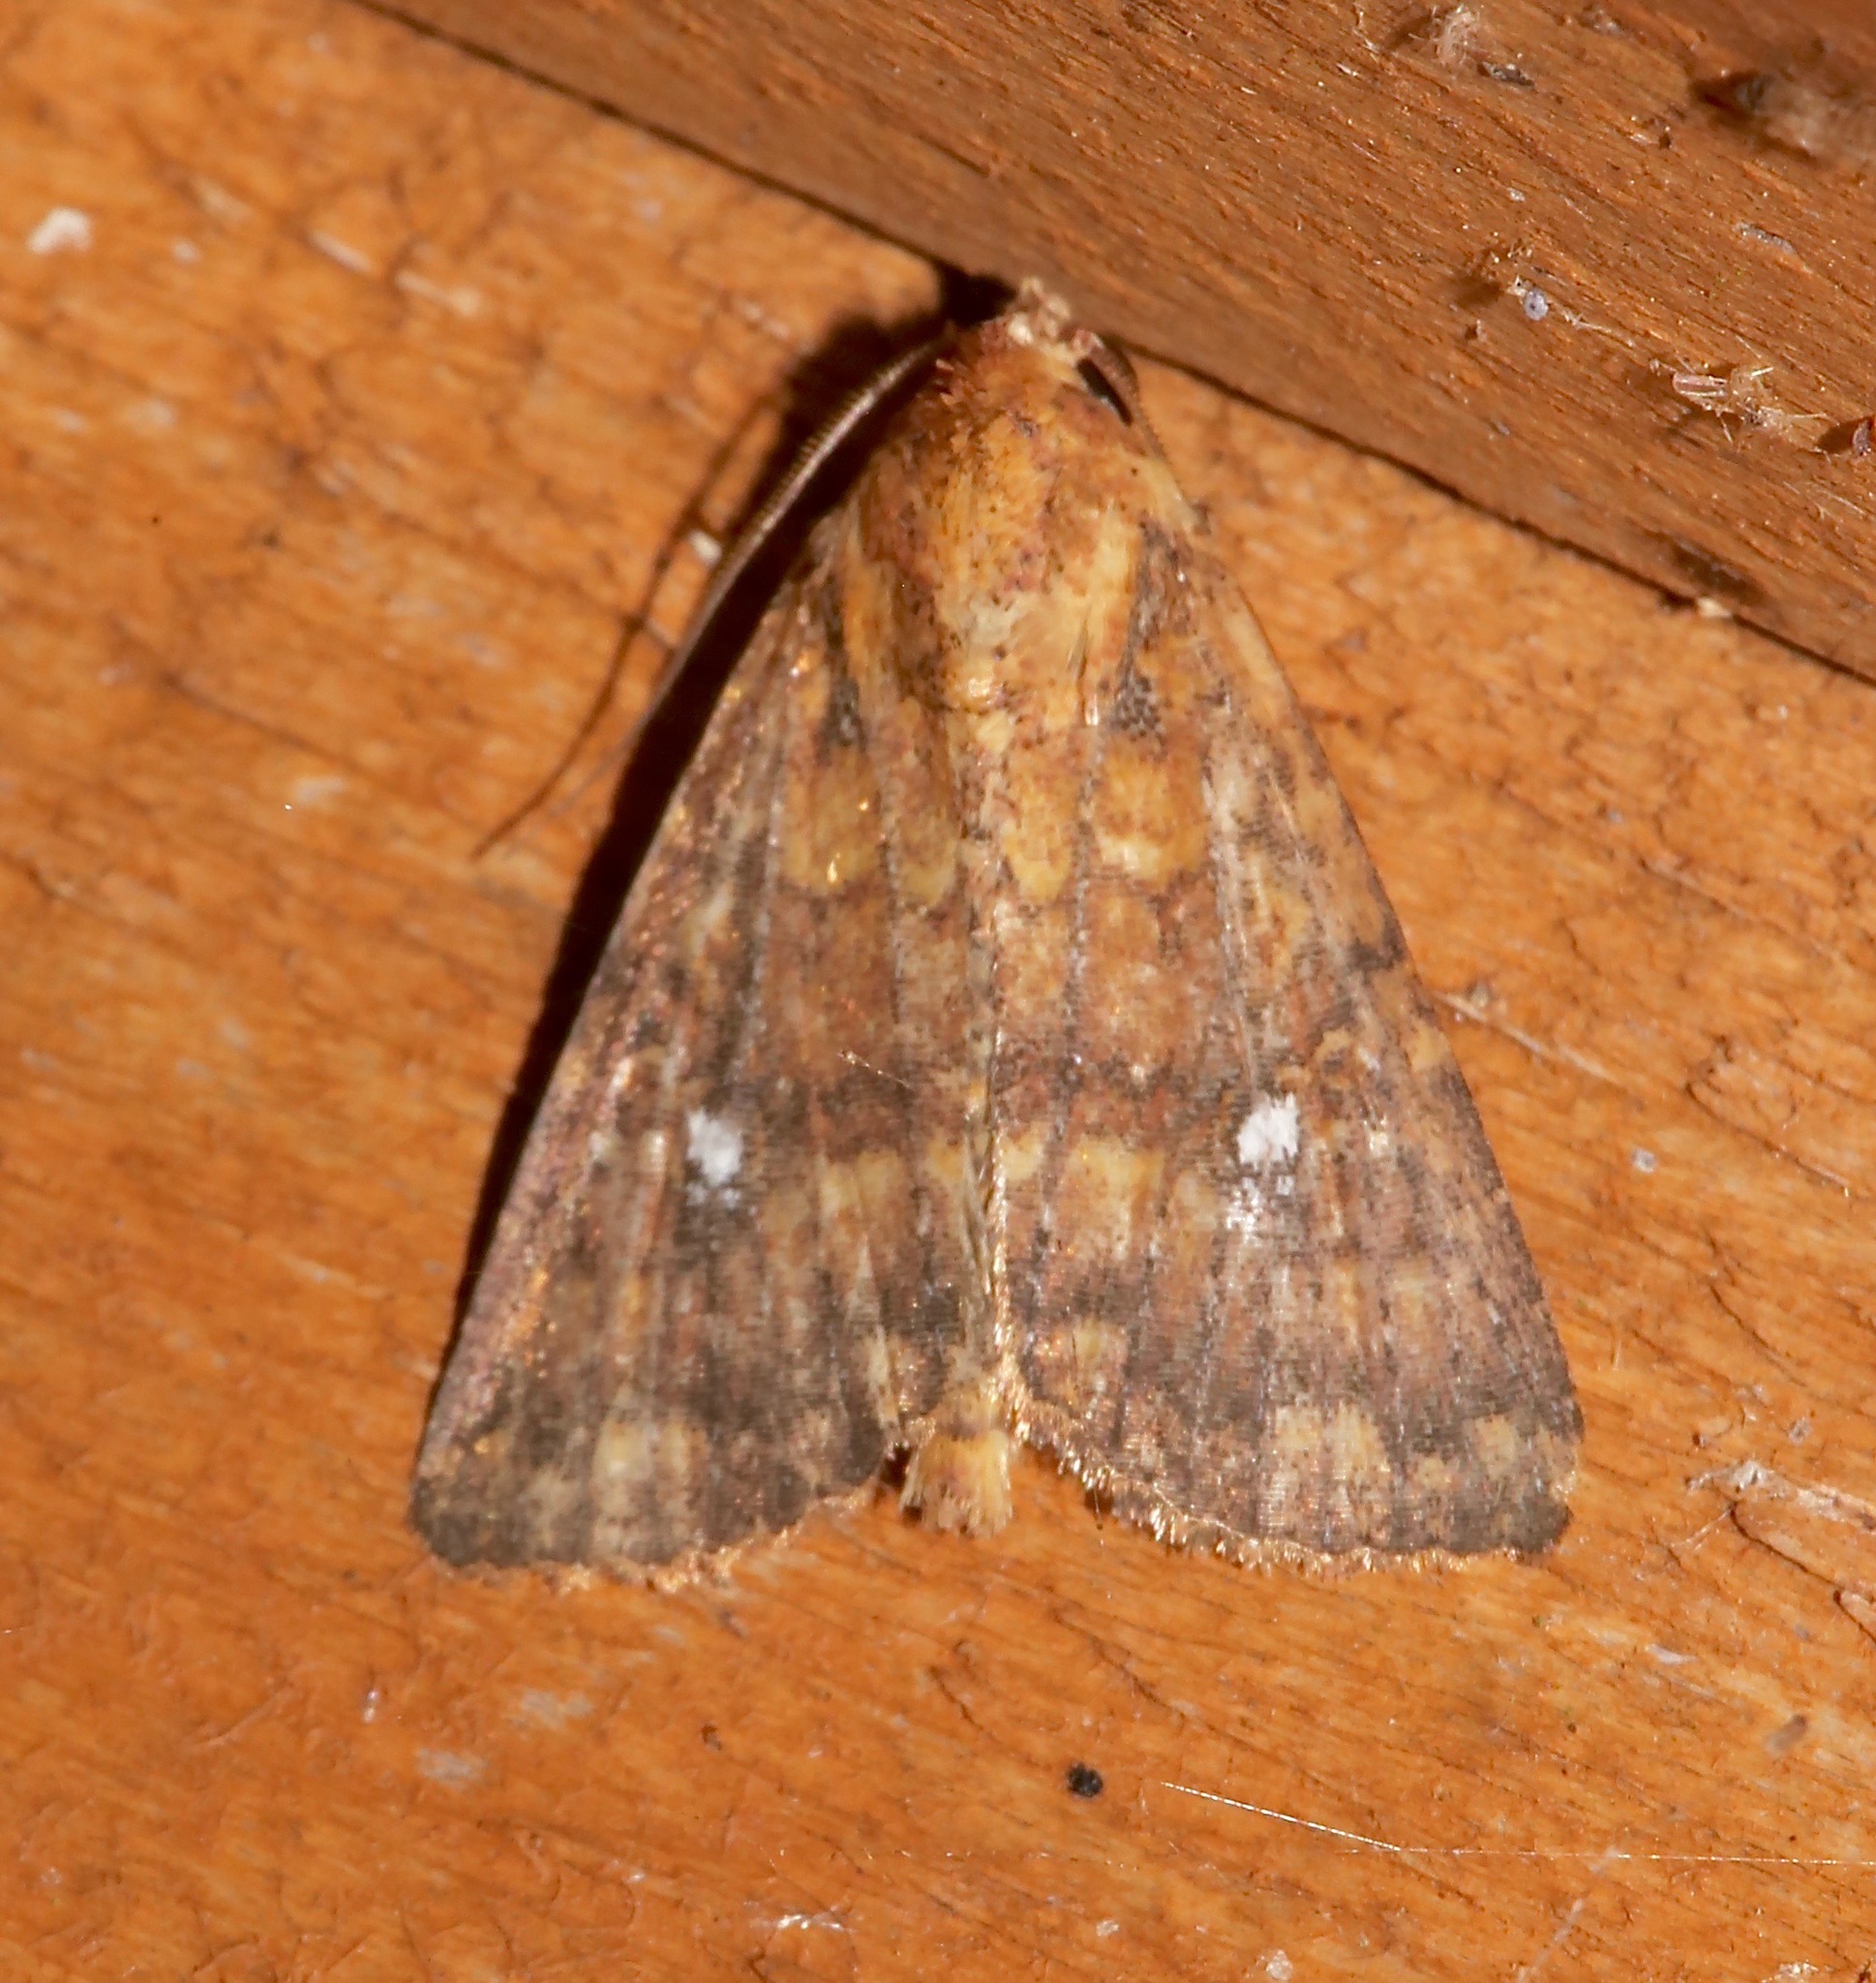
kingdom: Animalia
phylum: Arthropoda
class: Insecta
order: Lepidoptera
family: Noctuidae
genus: Condica
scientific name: Condica mobilis
